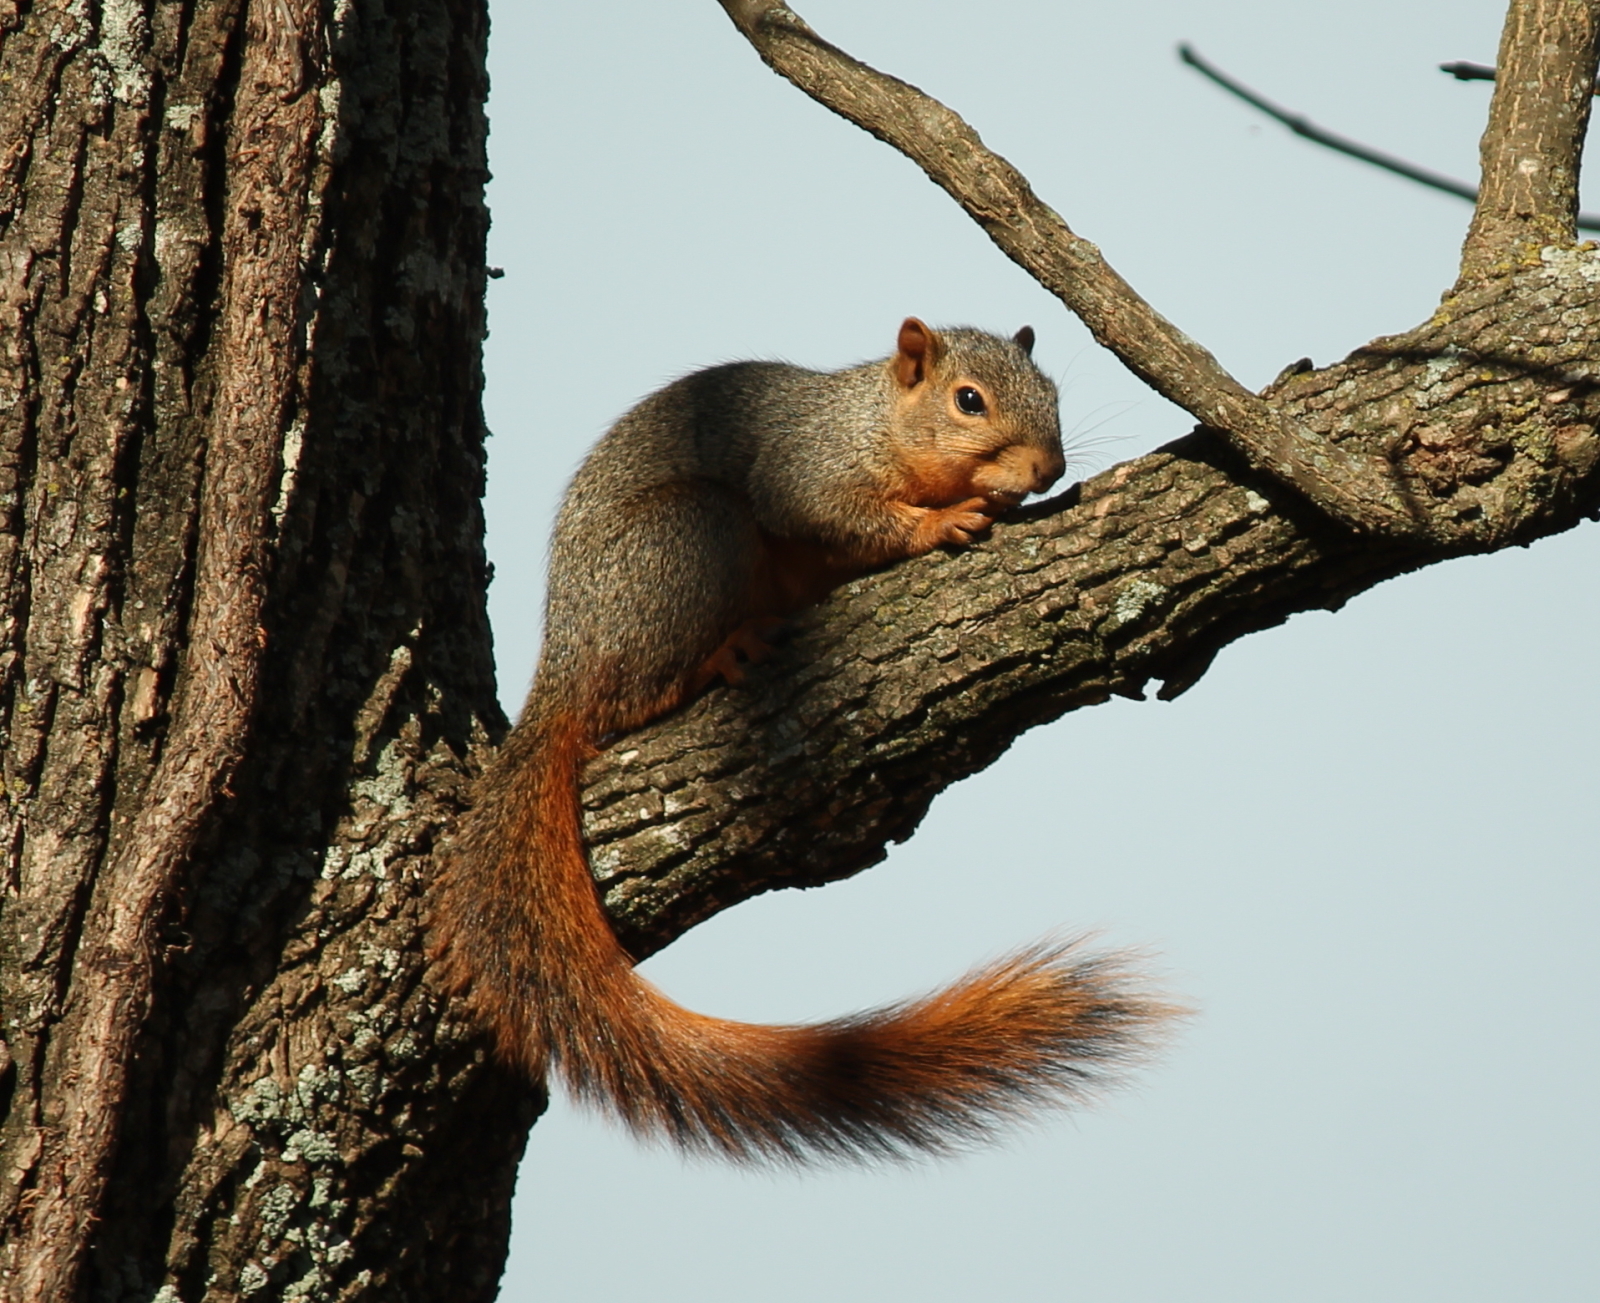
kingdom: Animalia
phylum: Chordata
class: Mammalia
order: Rodentia
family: Sciuridae
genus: Sciurus
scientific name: Sciurus niger
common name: Fox squirrel
